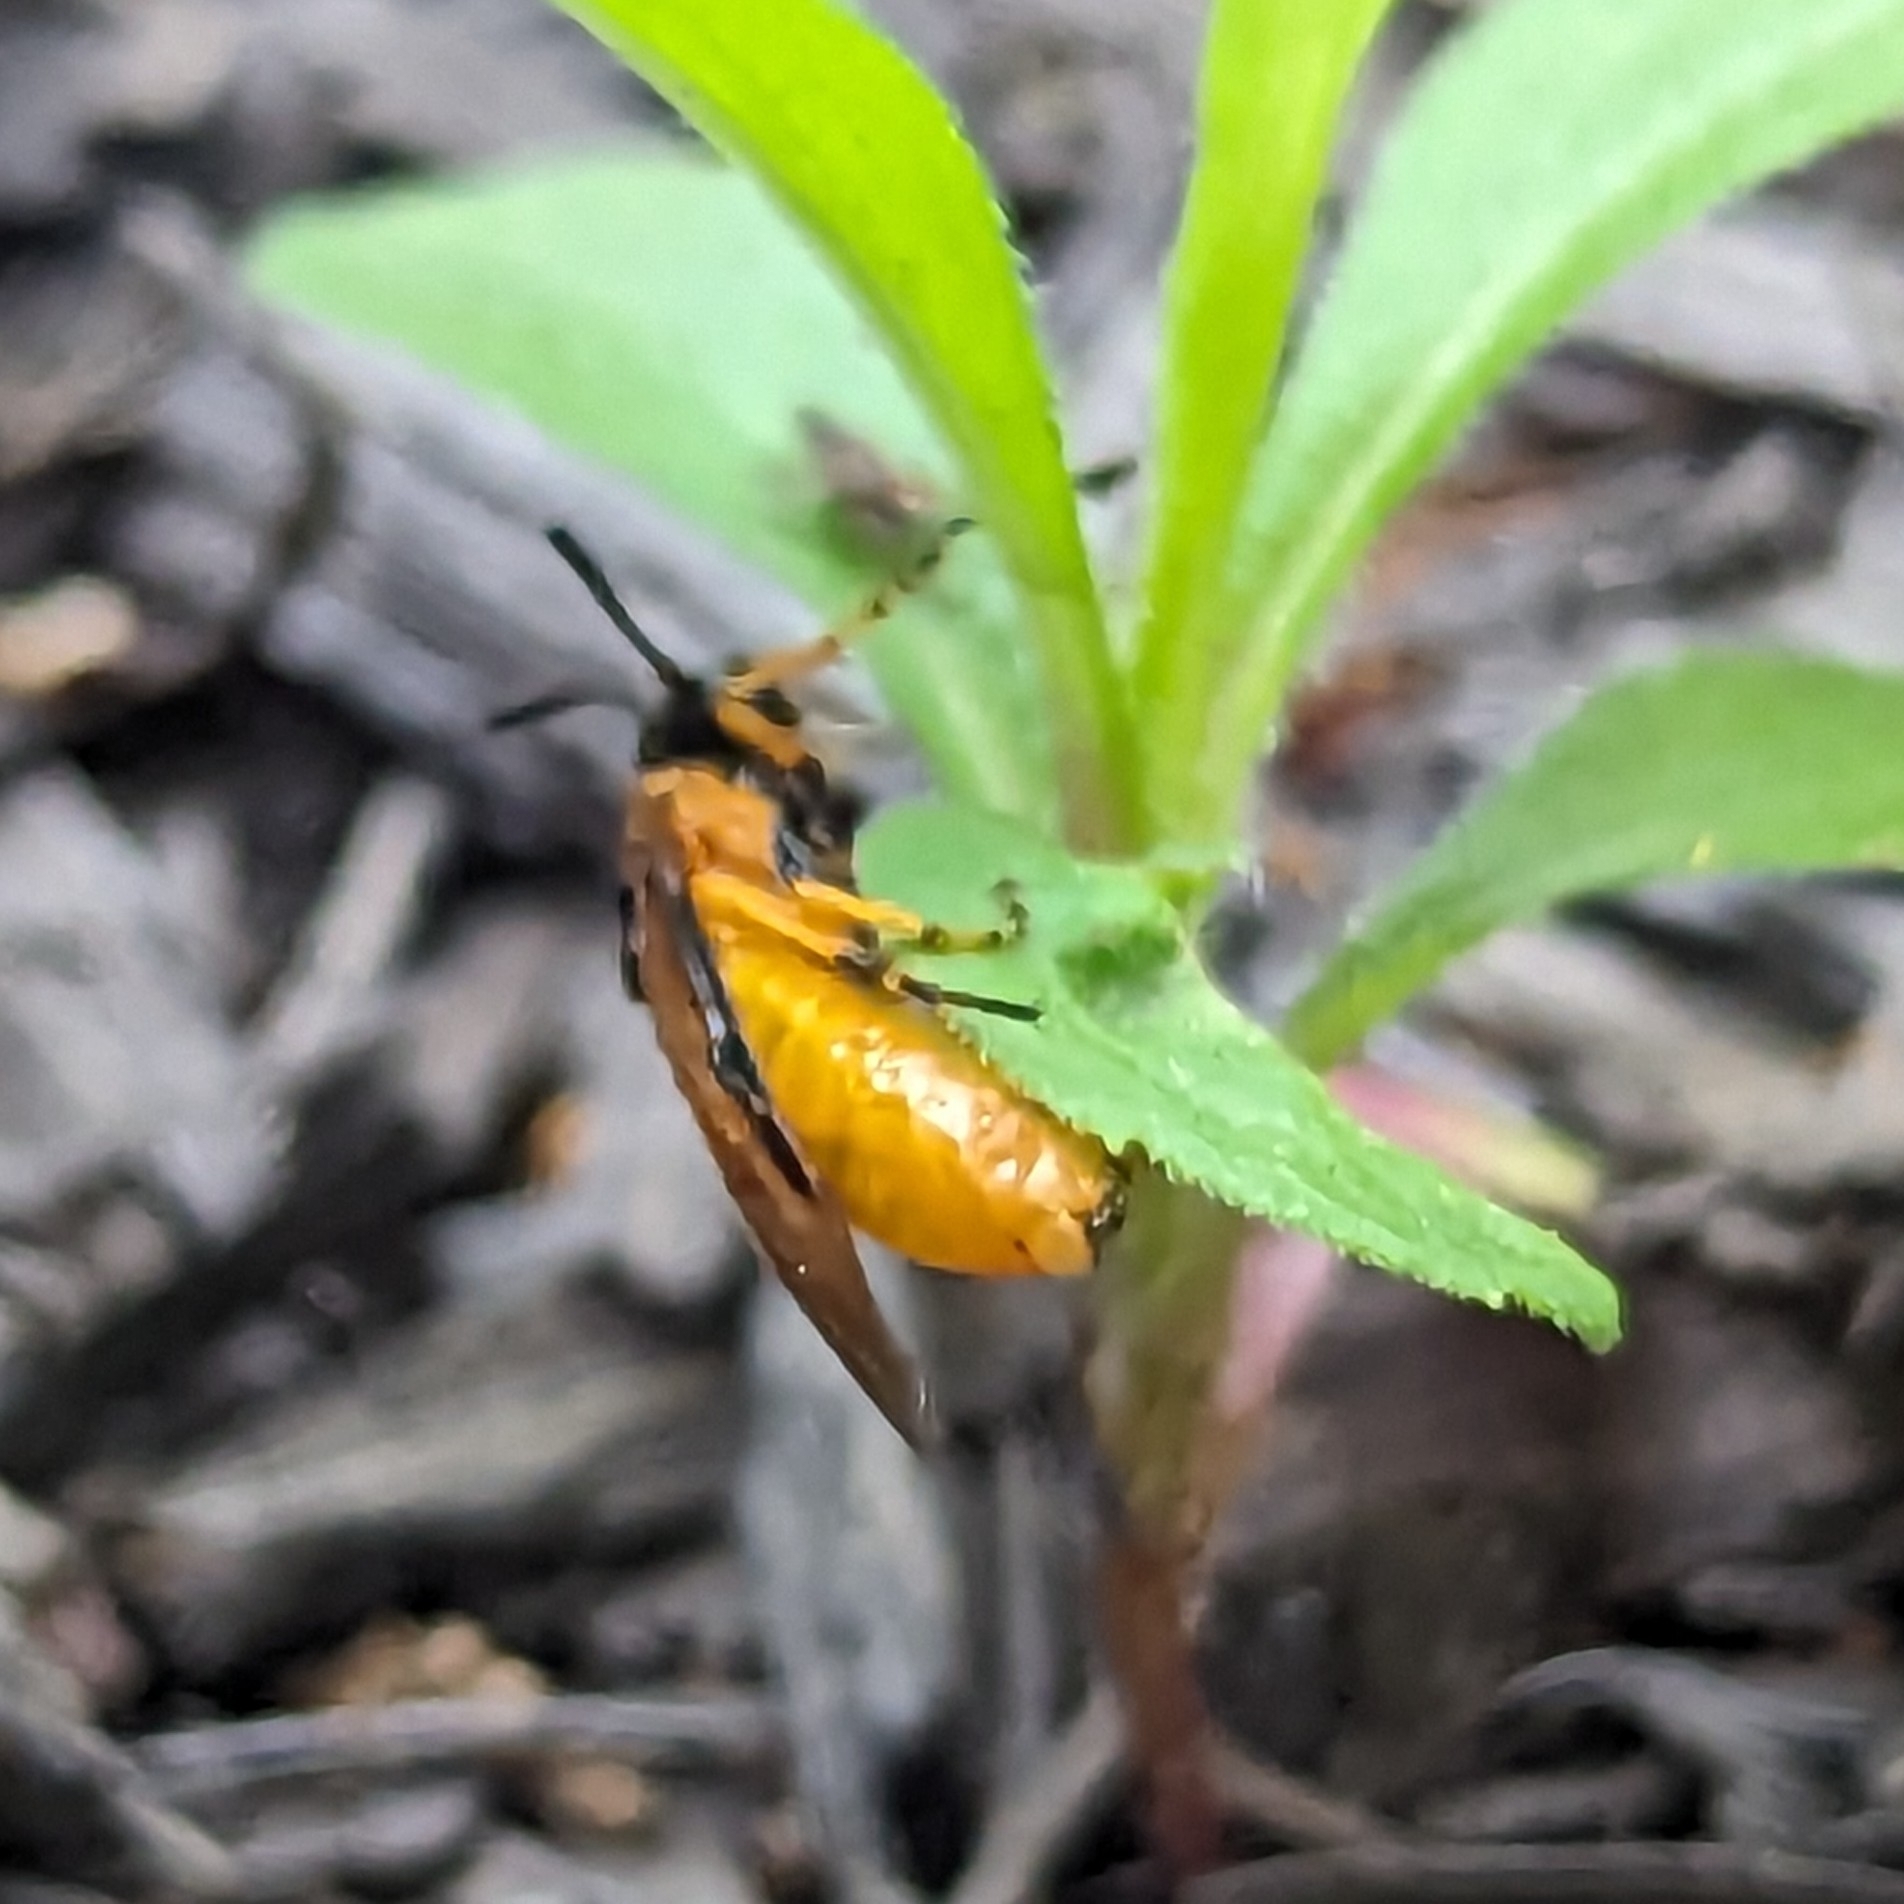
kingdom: Animalia
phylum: Arthropoda
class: Insecta
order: Hymenoptera
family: Argidae
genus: Arge
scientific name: Arge ochropus
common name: Argid sawfly
